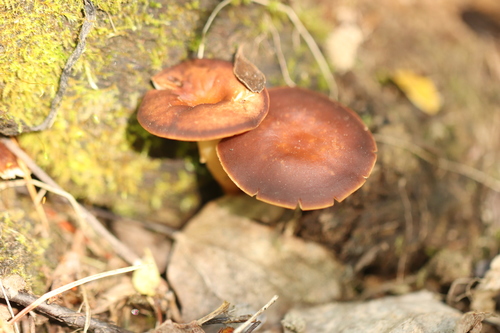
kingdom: Fungi
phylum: Basidiomycota
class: Agaricomycetes
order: Agaricales
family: Omphalotaceae
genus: Gymnopus
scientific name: Gymnopus ocior
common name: Spring toughshank
